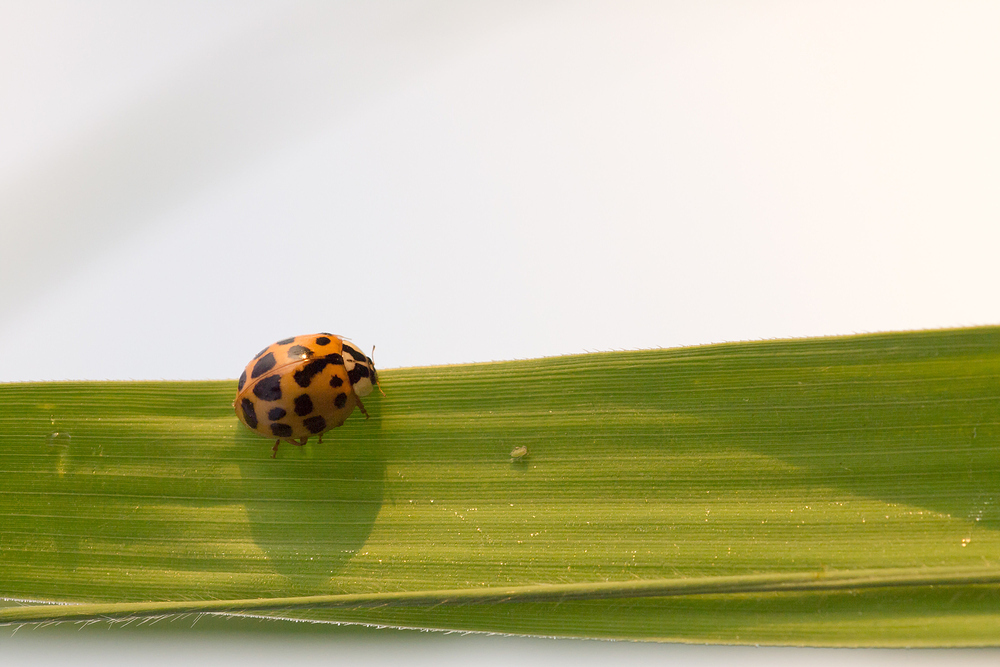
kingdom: Animalia
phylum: Arthropoda
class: Insecta
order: Coleoptera
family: Coccinellidae
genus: Harmonia
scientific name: Harmonia axyridis
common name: Harlequin ladybird
